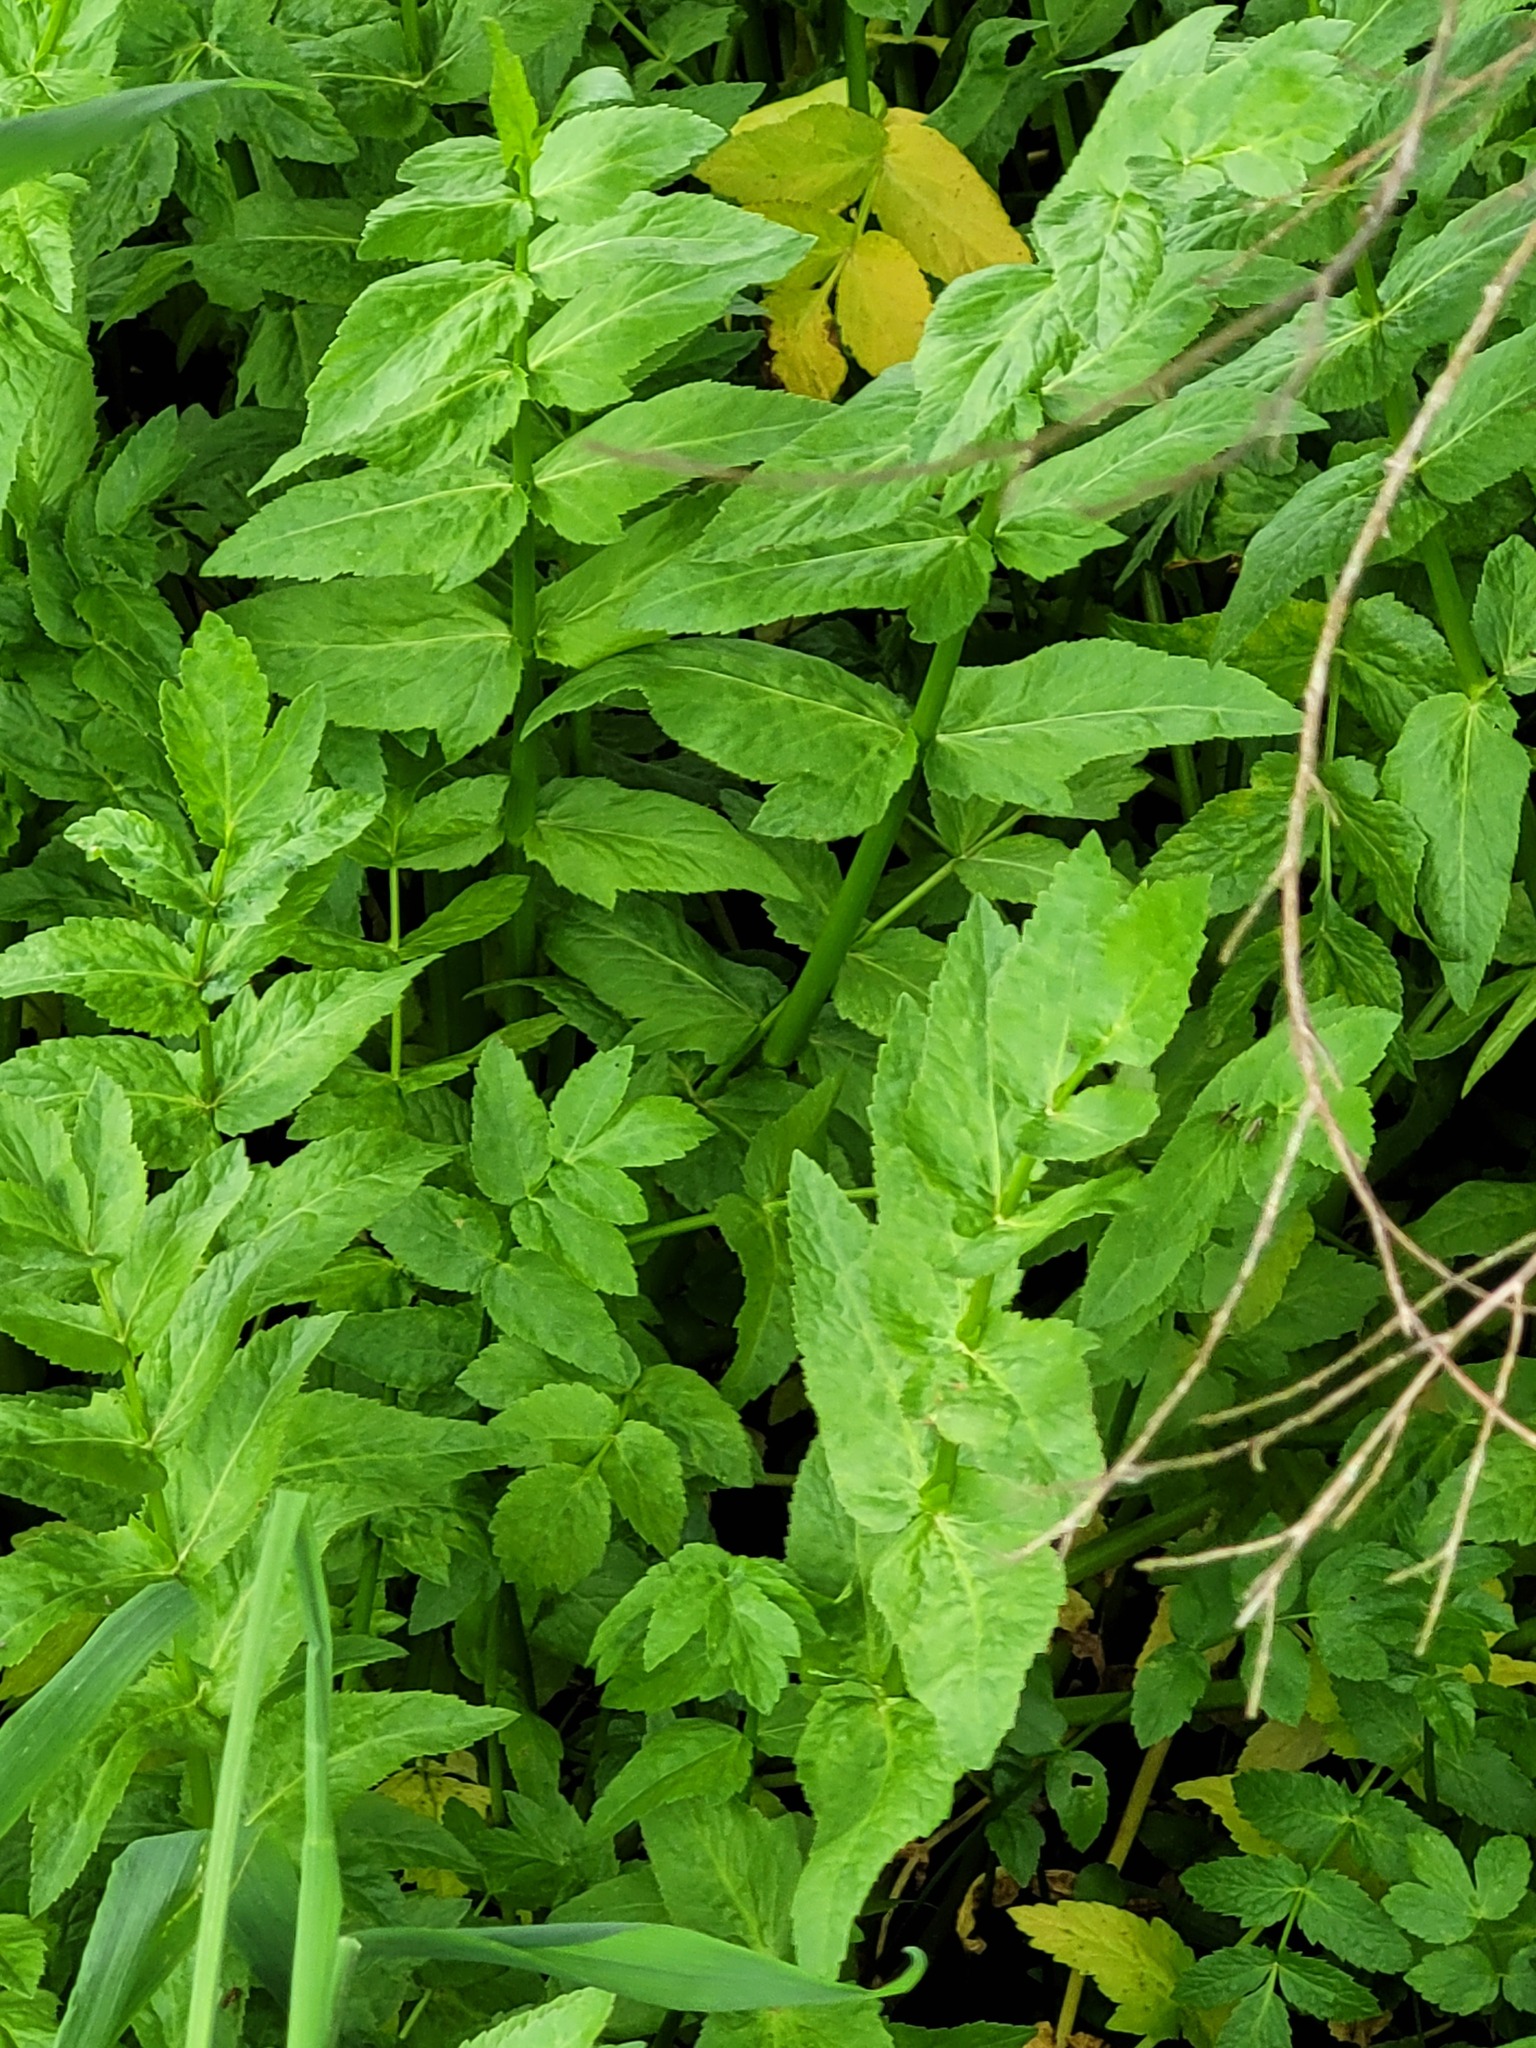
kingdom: Plantae
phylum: Tracheophyta
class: Magnoliopsida
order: Apiales
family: Apiaceae
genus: Helosciadium
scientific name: Helosciadium nodiflorum
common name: Fool's-watercress
